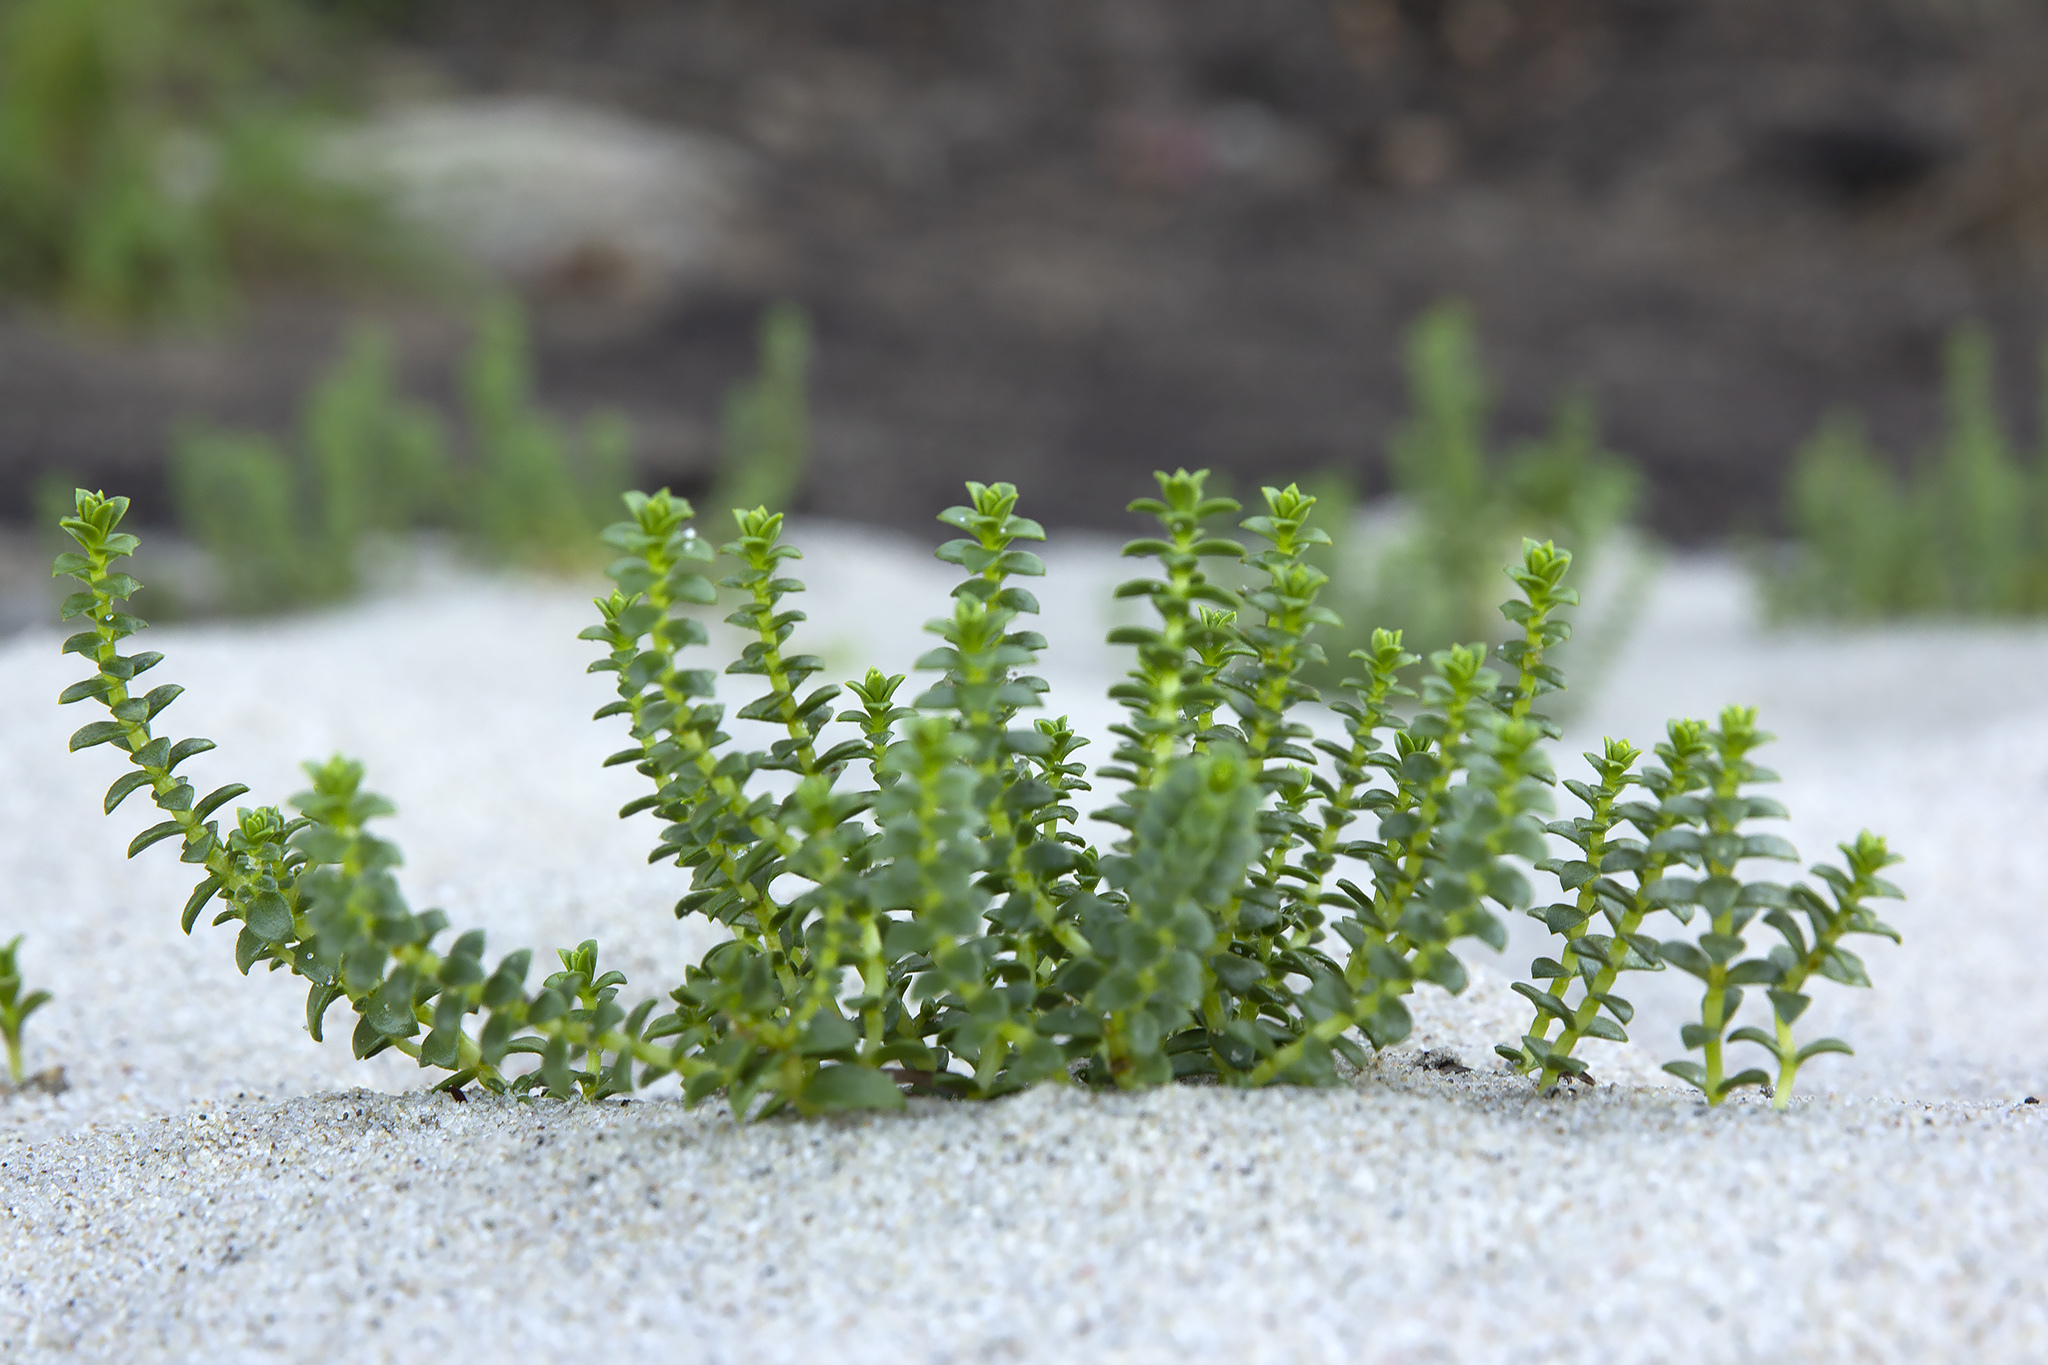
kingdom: Plantae
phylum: Tracheophyta
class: Magnoliopsida
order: Caryophyllales
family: Caryophyllaceae
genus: Honckenya
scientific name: Honckenya peploides
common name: Sea sandwort
